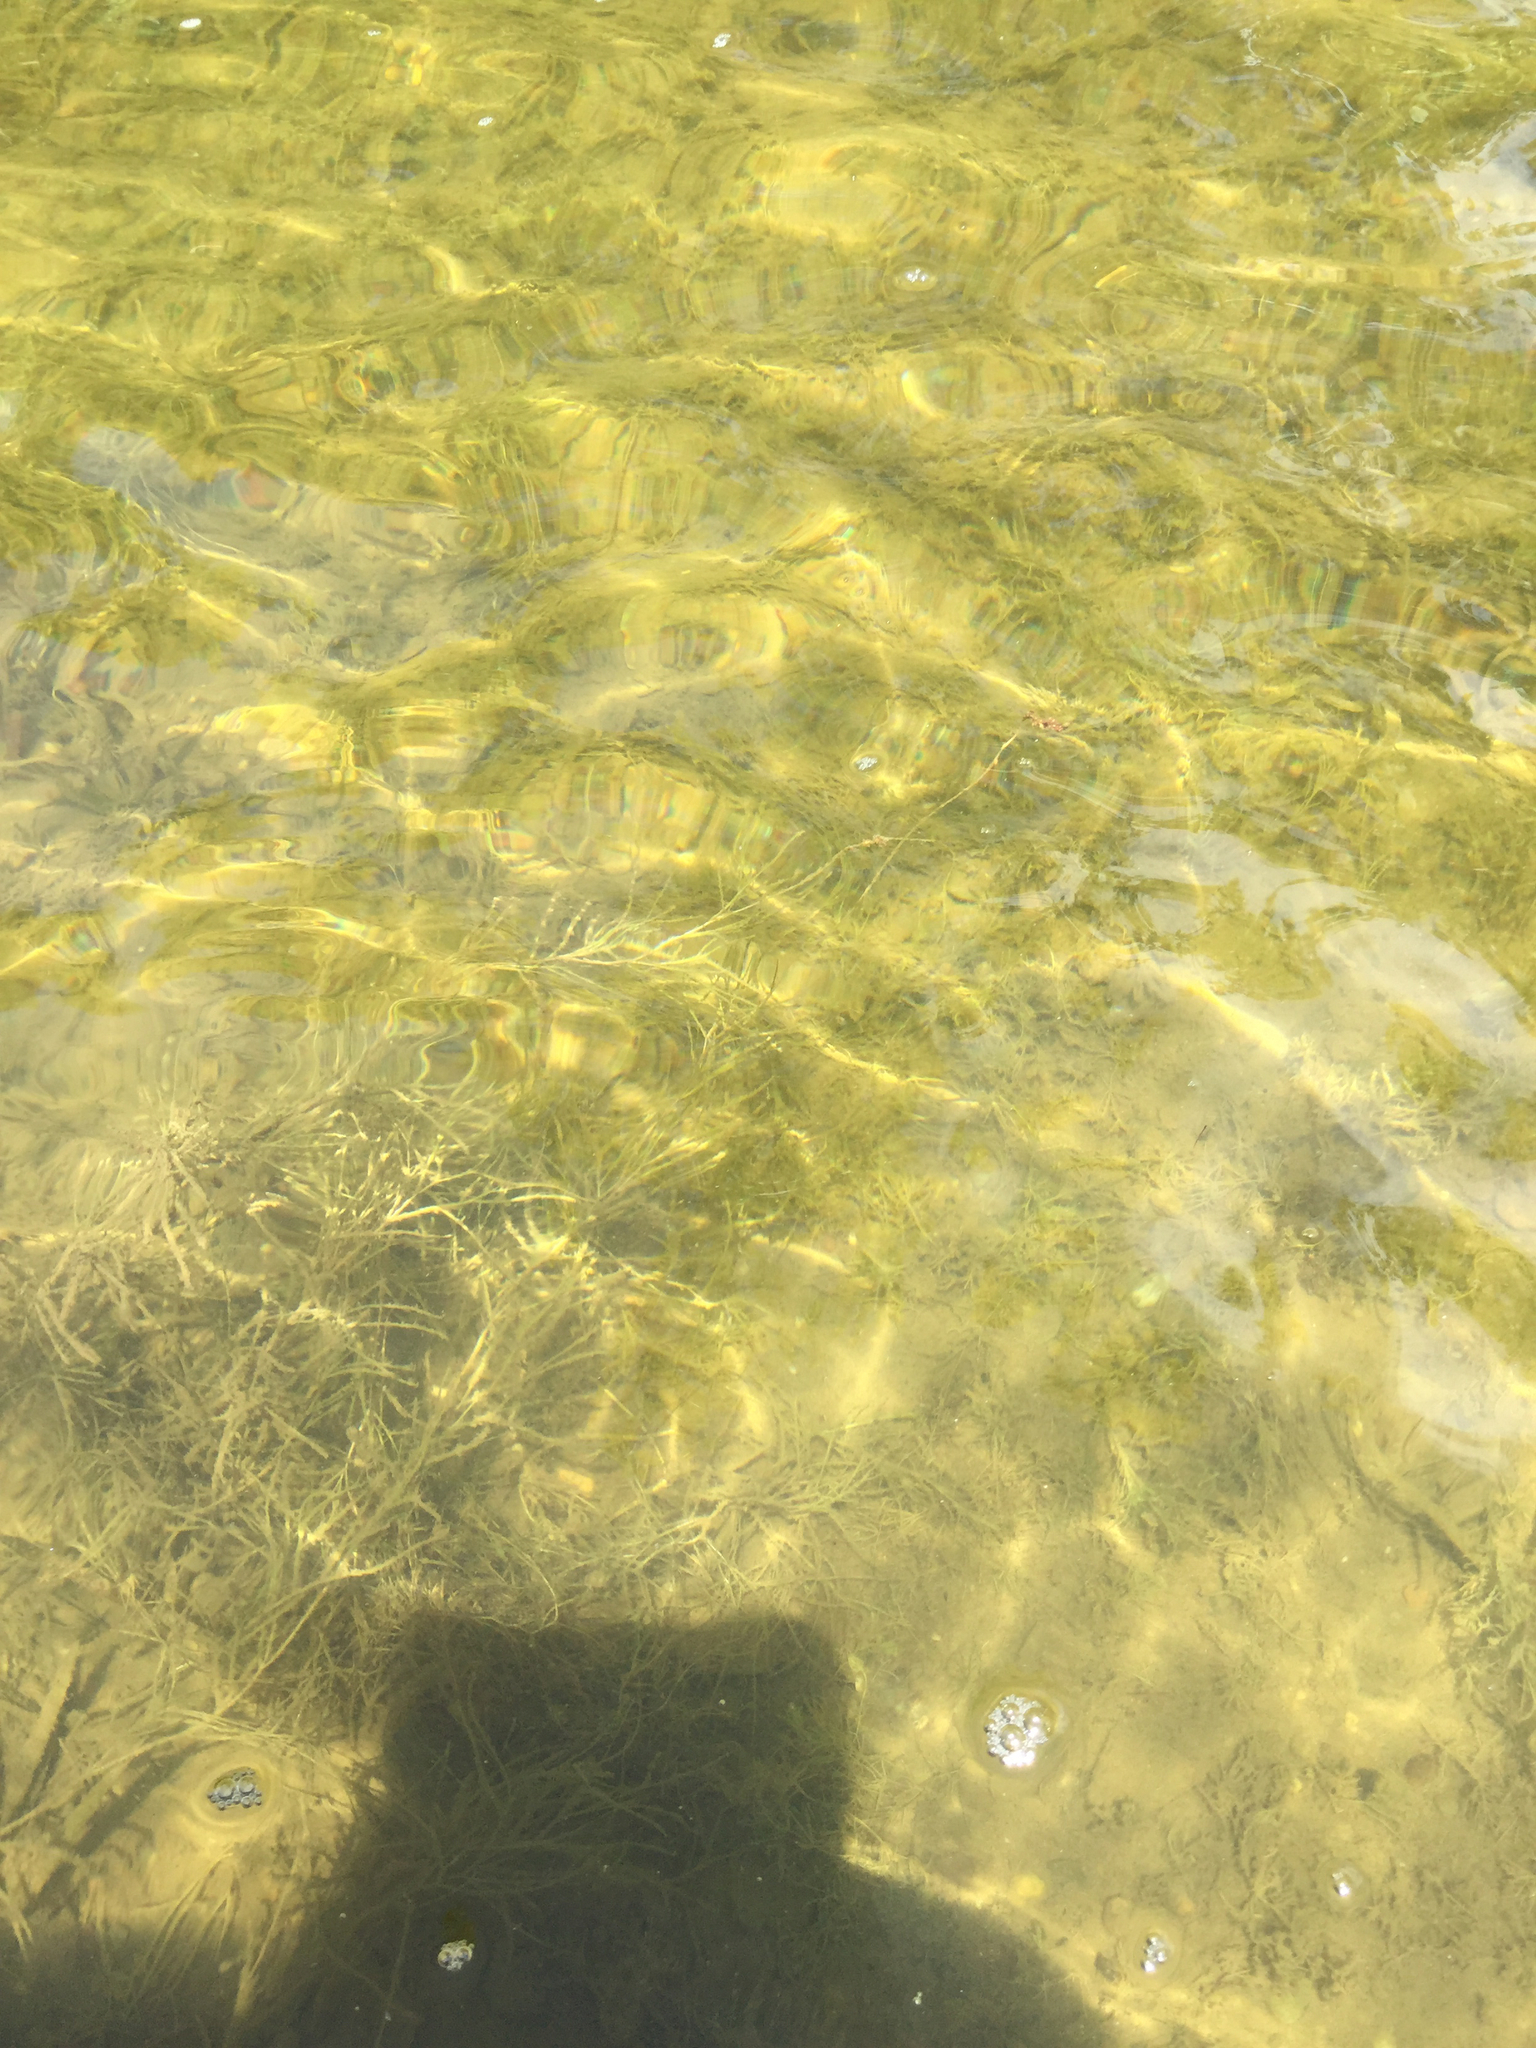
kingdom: Plantae
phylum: Tracheophyta
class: Liliopsida
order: Alismatales
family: Potamogetonaceae
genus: Stuckenia
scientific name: Stuckenia pectinata
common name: Sago pondweed
